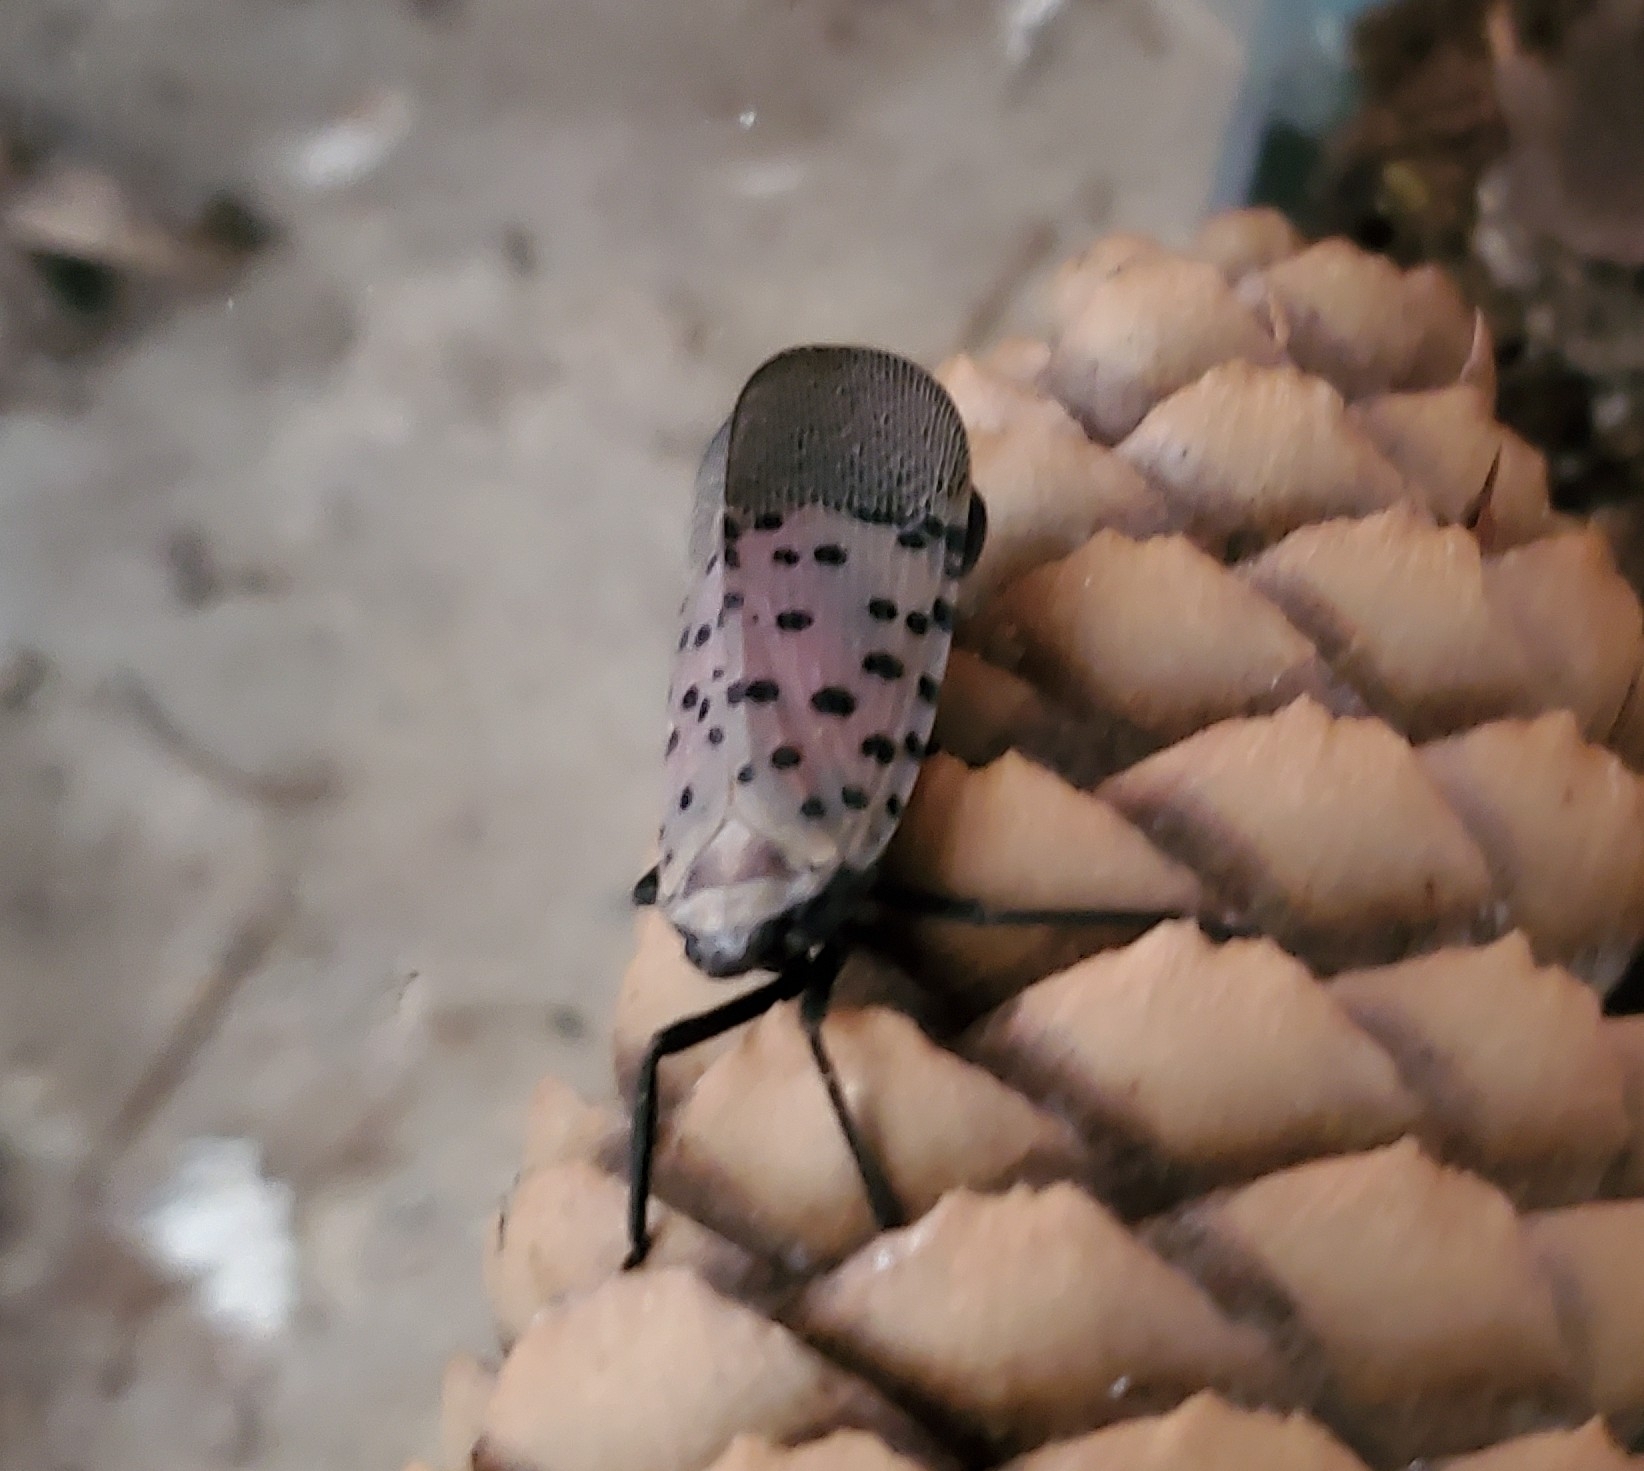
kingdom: Animalia
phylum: Arthropoda
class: Insecta
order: Hemiptera
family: Fulgoridae
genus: Lycorma
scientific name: Lycorma delicatula
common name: Spotted lanternfly
